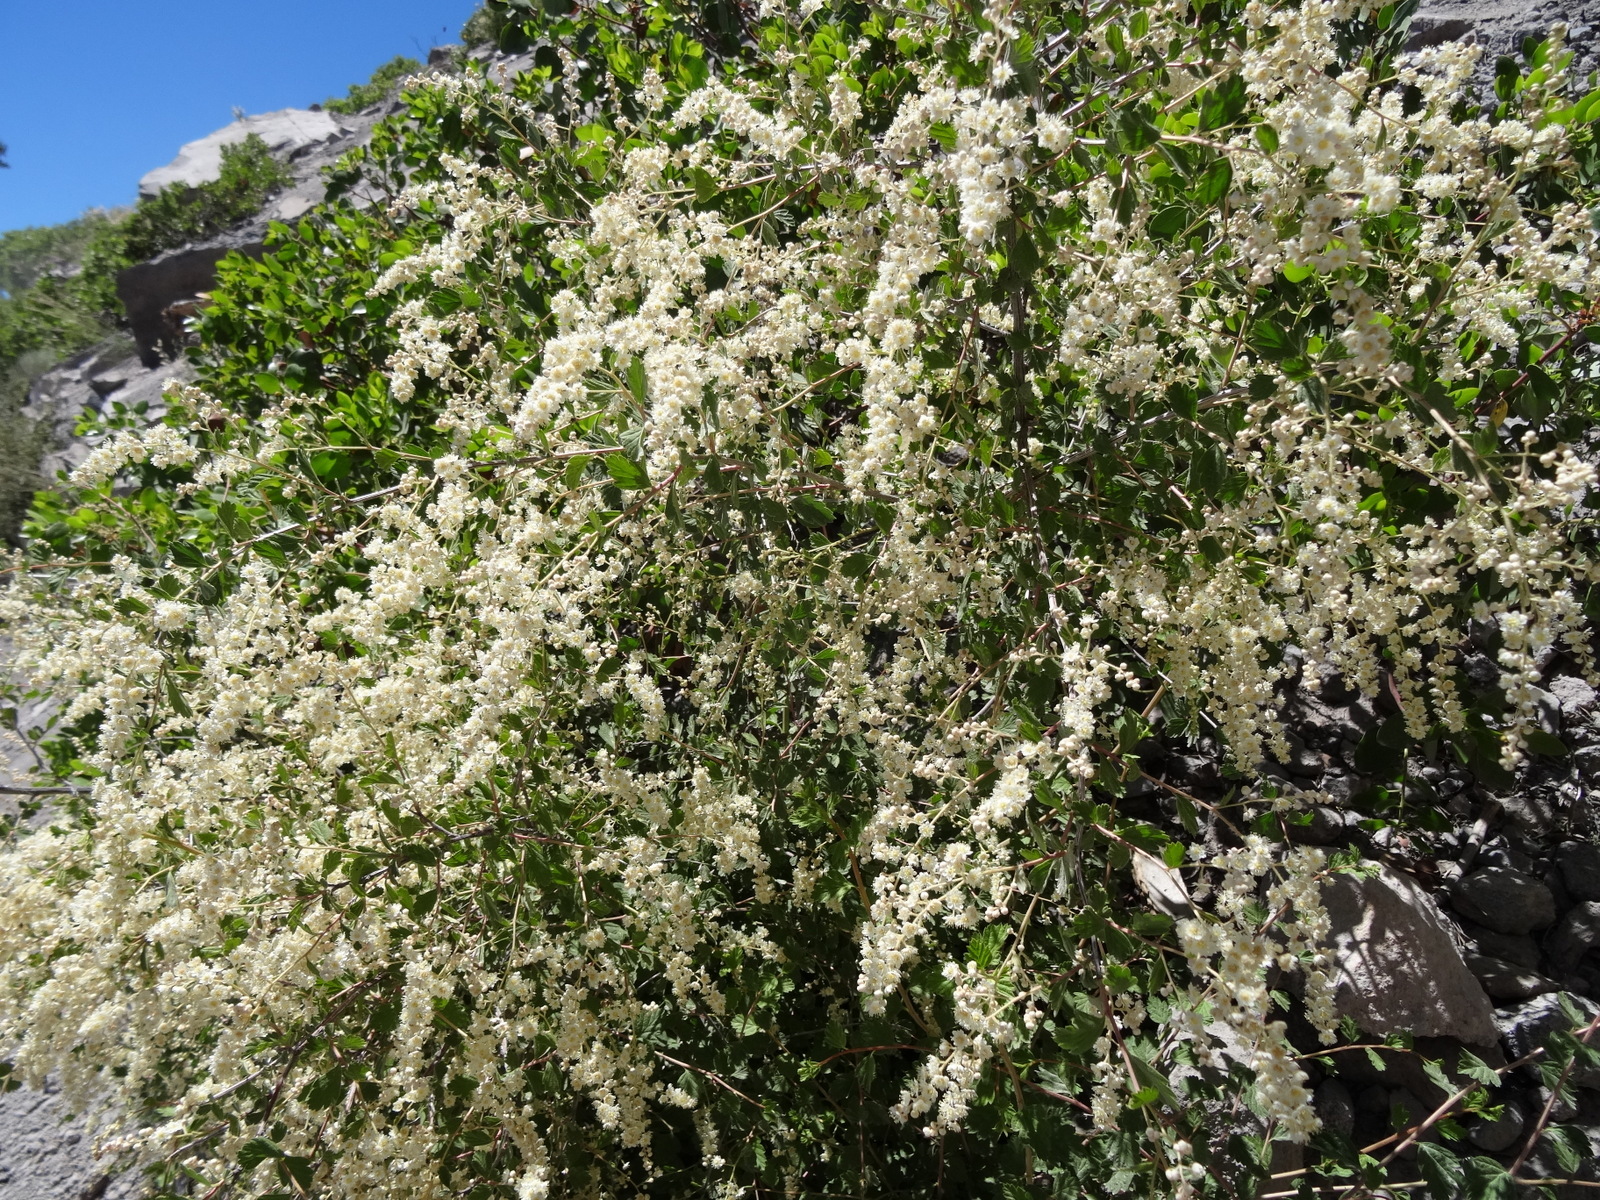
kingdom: Plantae
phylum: Tracheophyta
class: Magnoliopsida
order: Rosales
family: Rosaceae
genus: Holodiscus
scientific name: Holodiscus discolor
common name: Oceanspray
